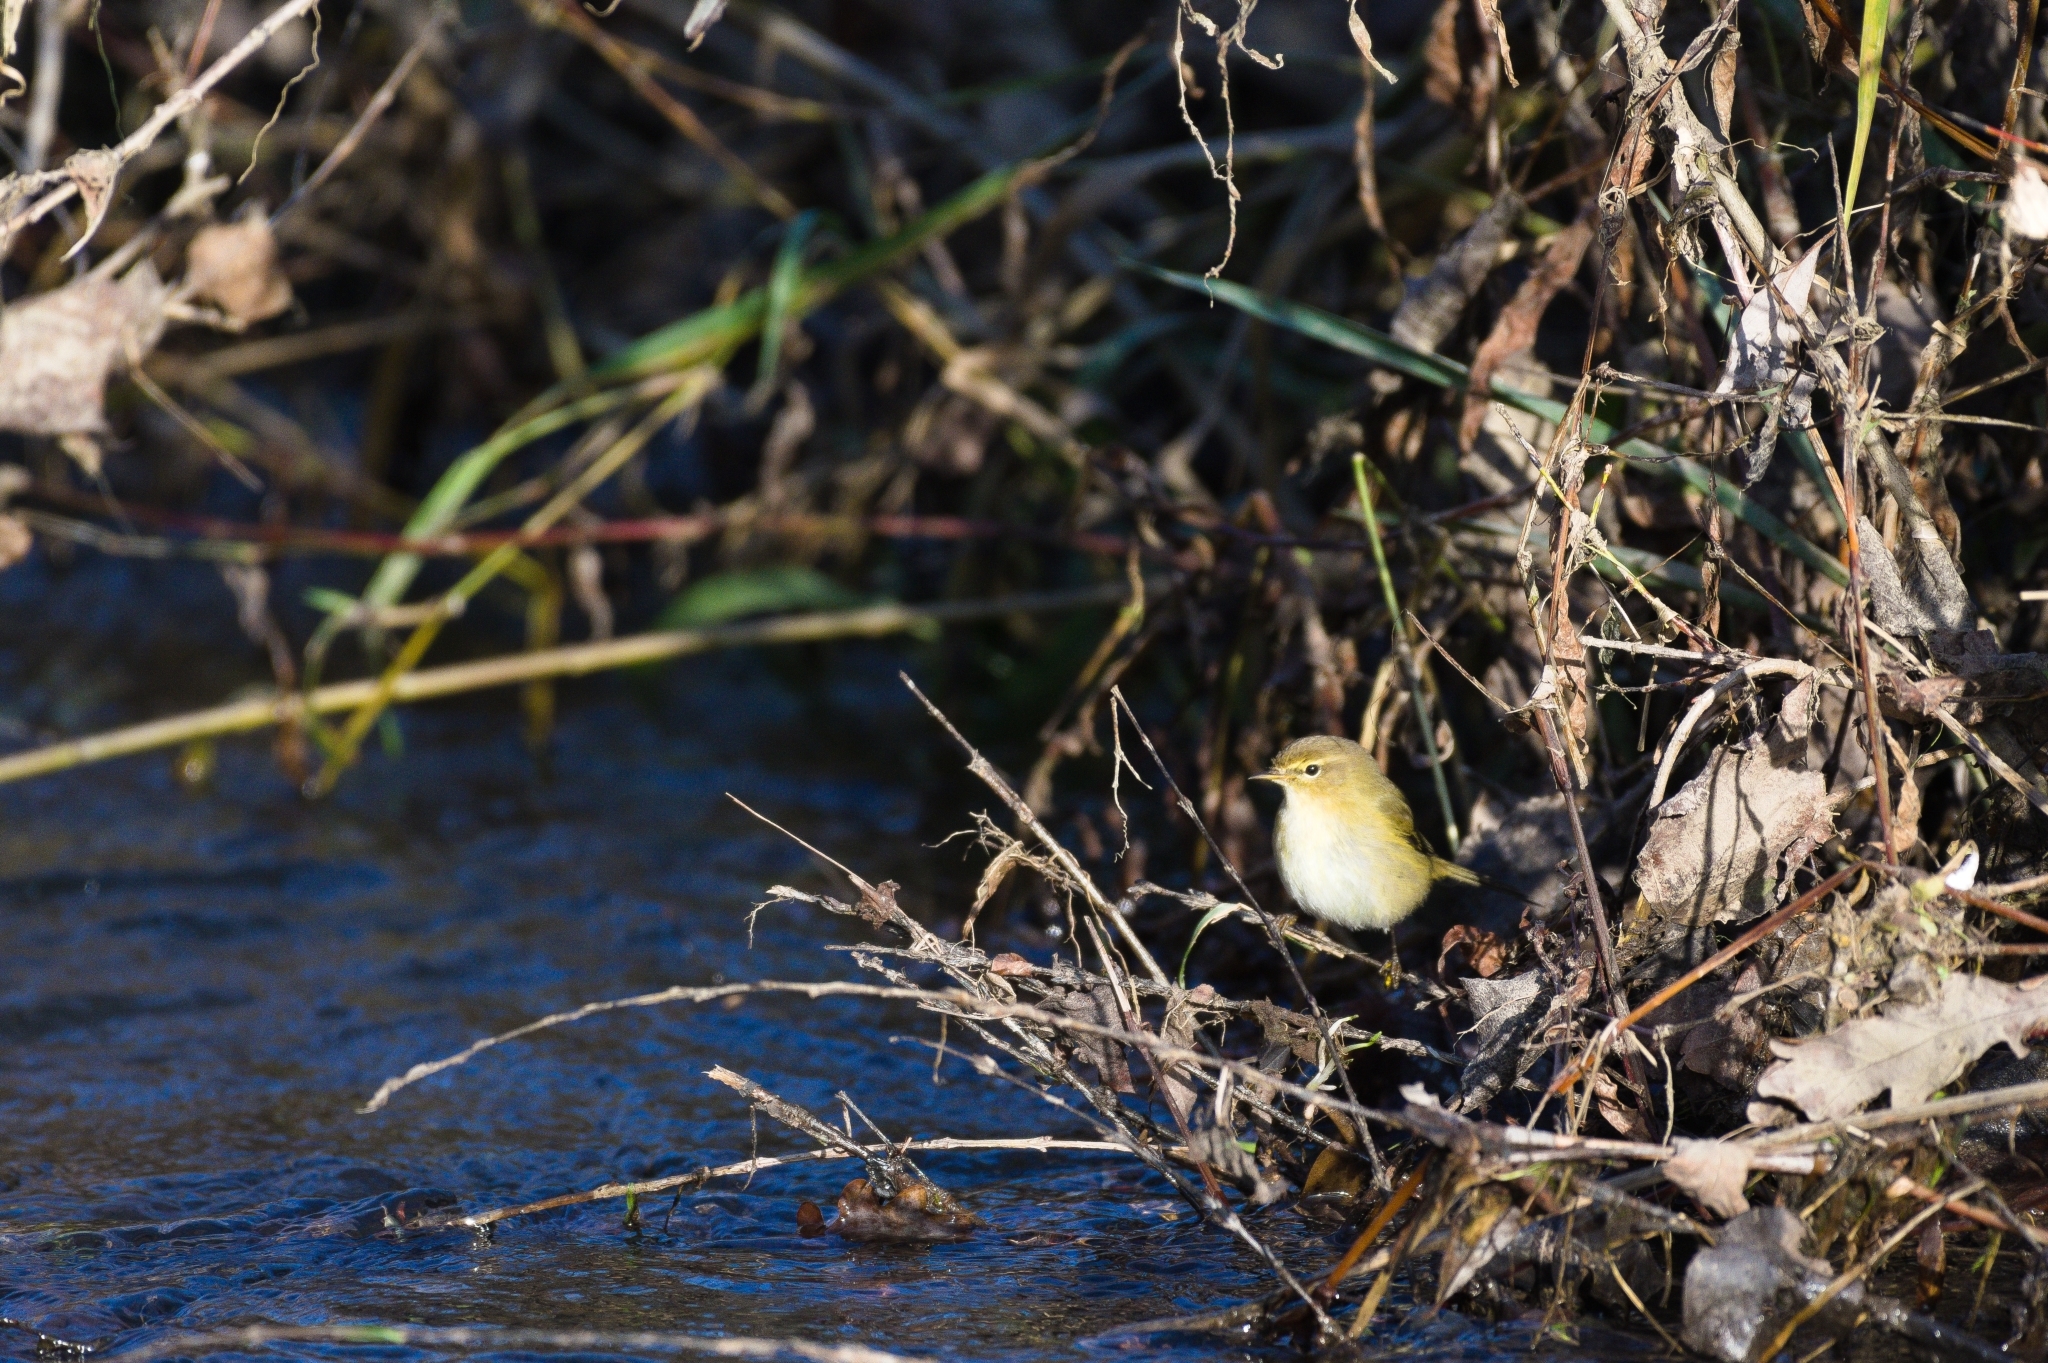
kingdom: Animalia
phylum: Chordata
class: Aves
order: Passeriformes
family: Phylloscopidae
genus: Phylloscopus
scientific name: Phylloscopus collybita
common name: Common chiffchaff
